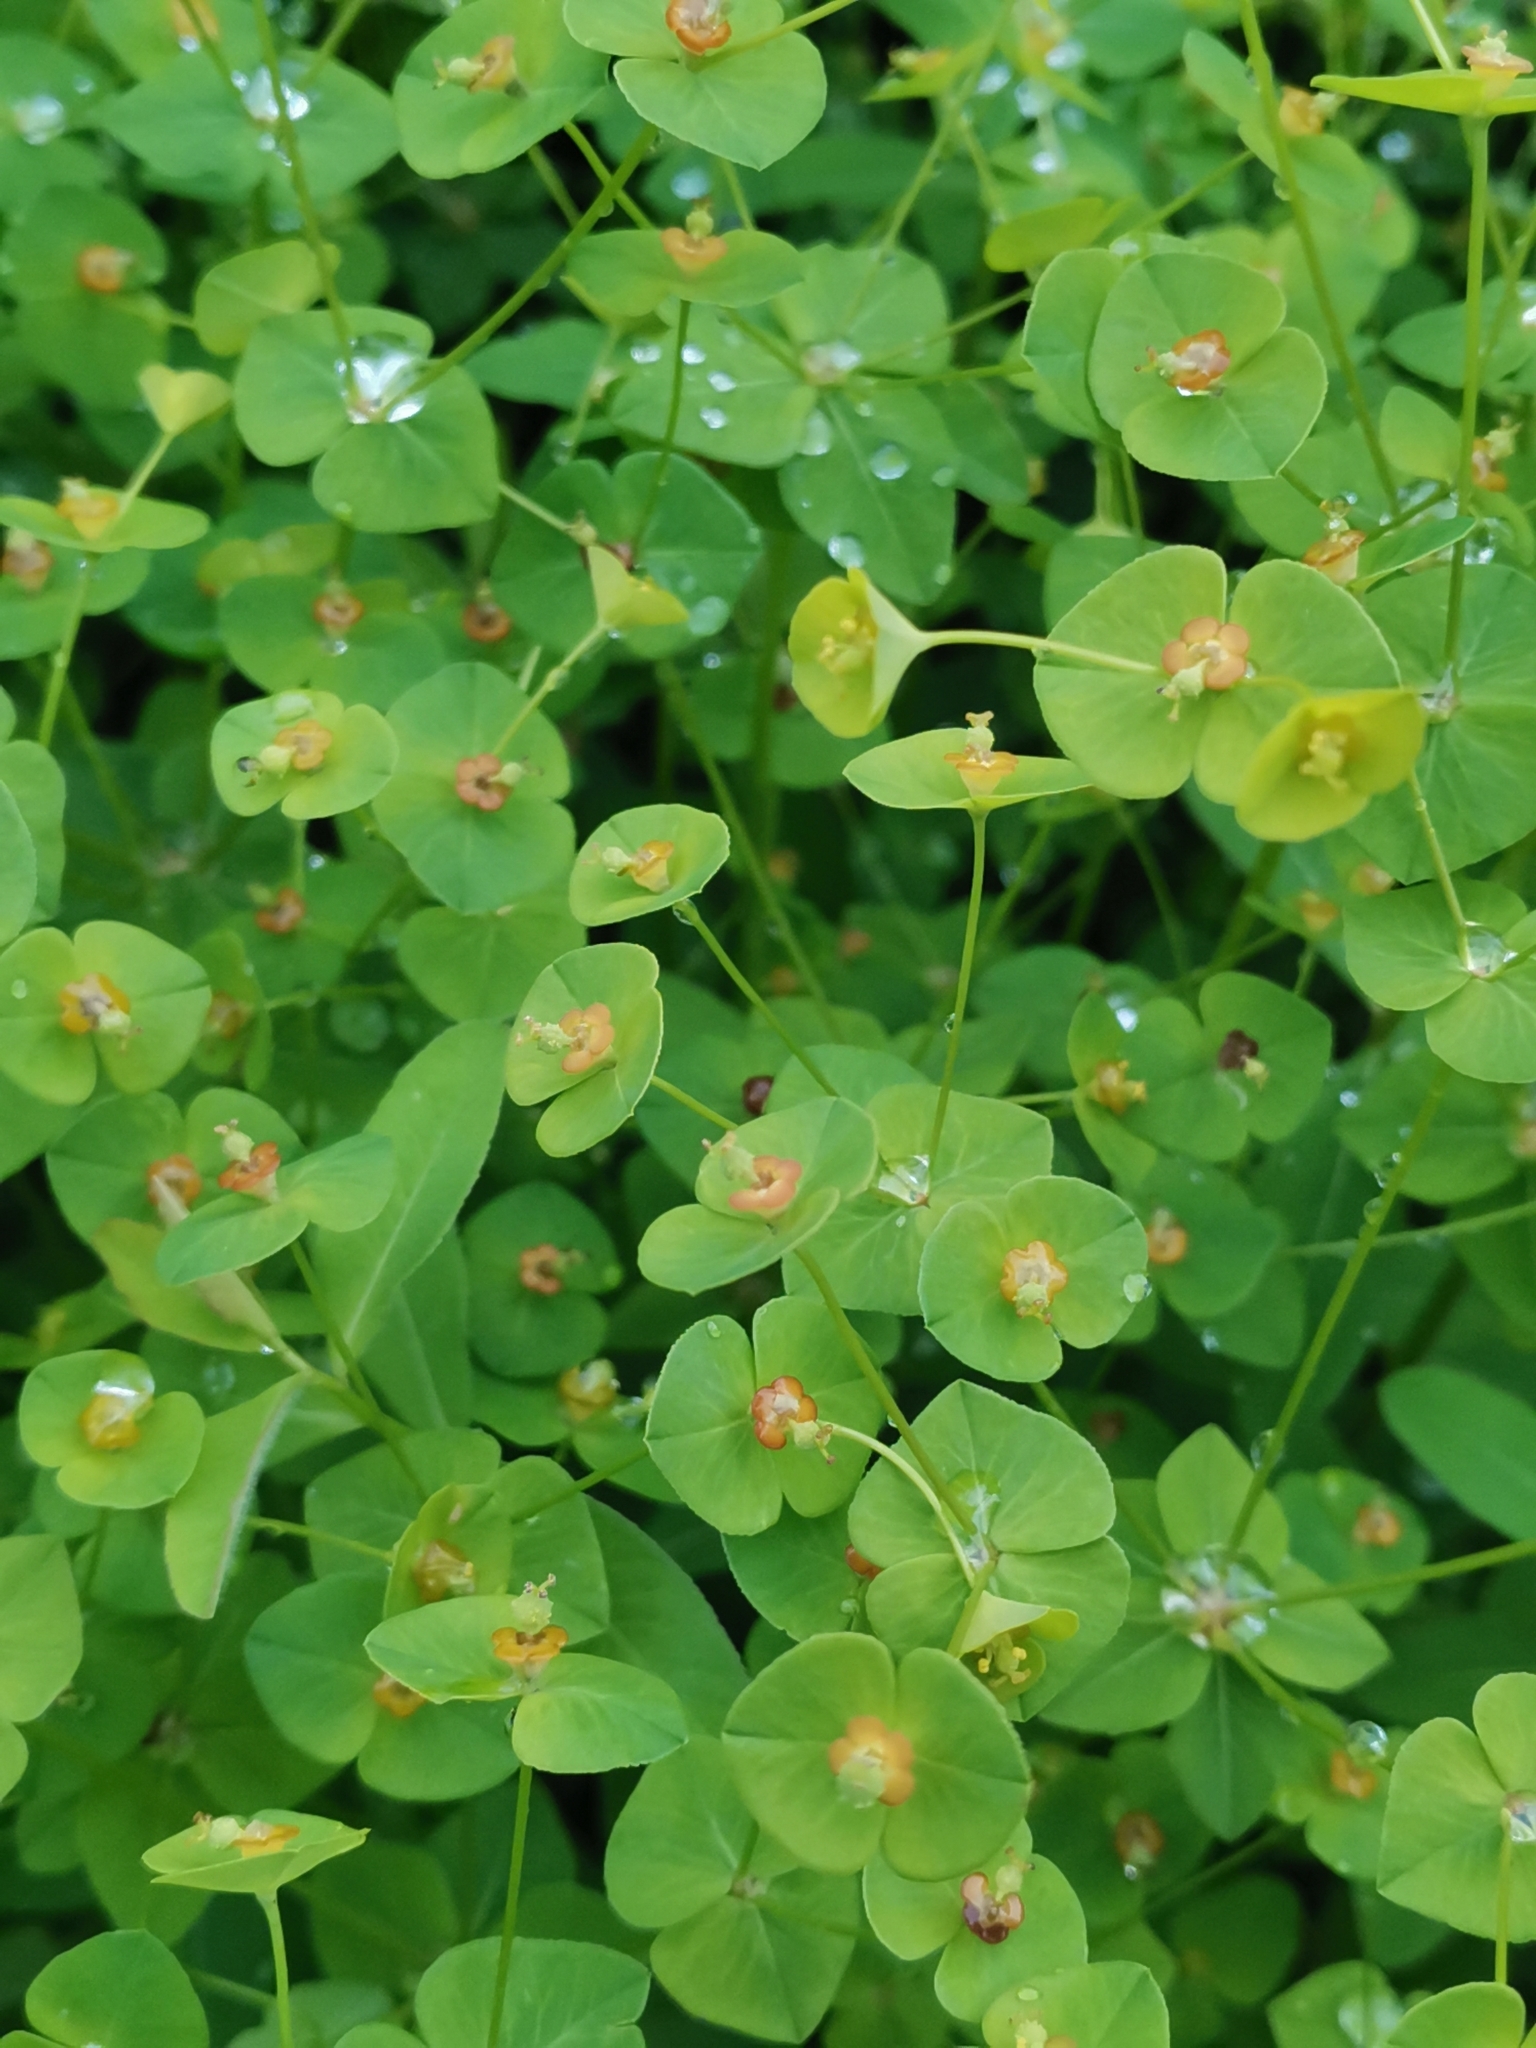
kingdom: Plantae
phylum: Tracheophyta
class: Magnoliopsida
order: Malpighiales
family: Euphorbiaceae
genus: Euphorbia
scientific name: Euphorbia angulata
